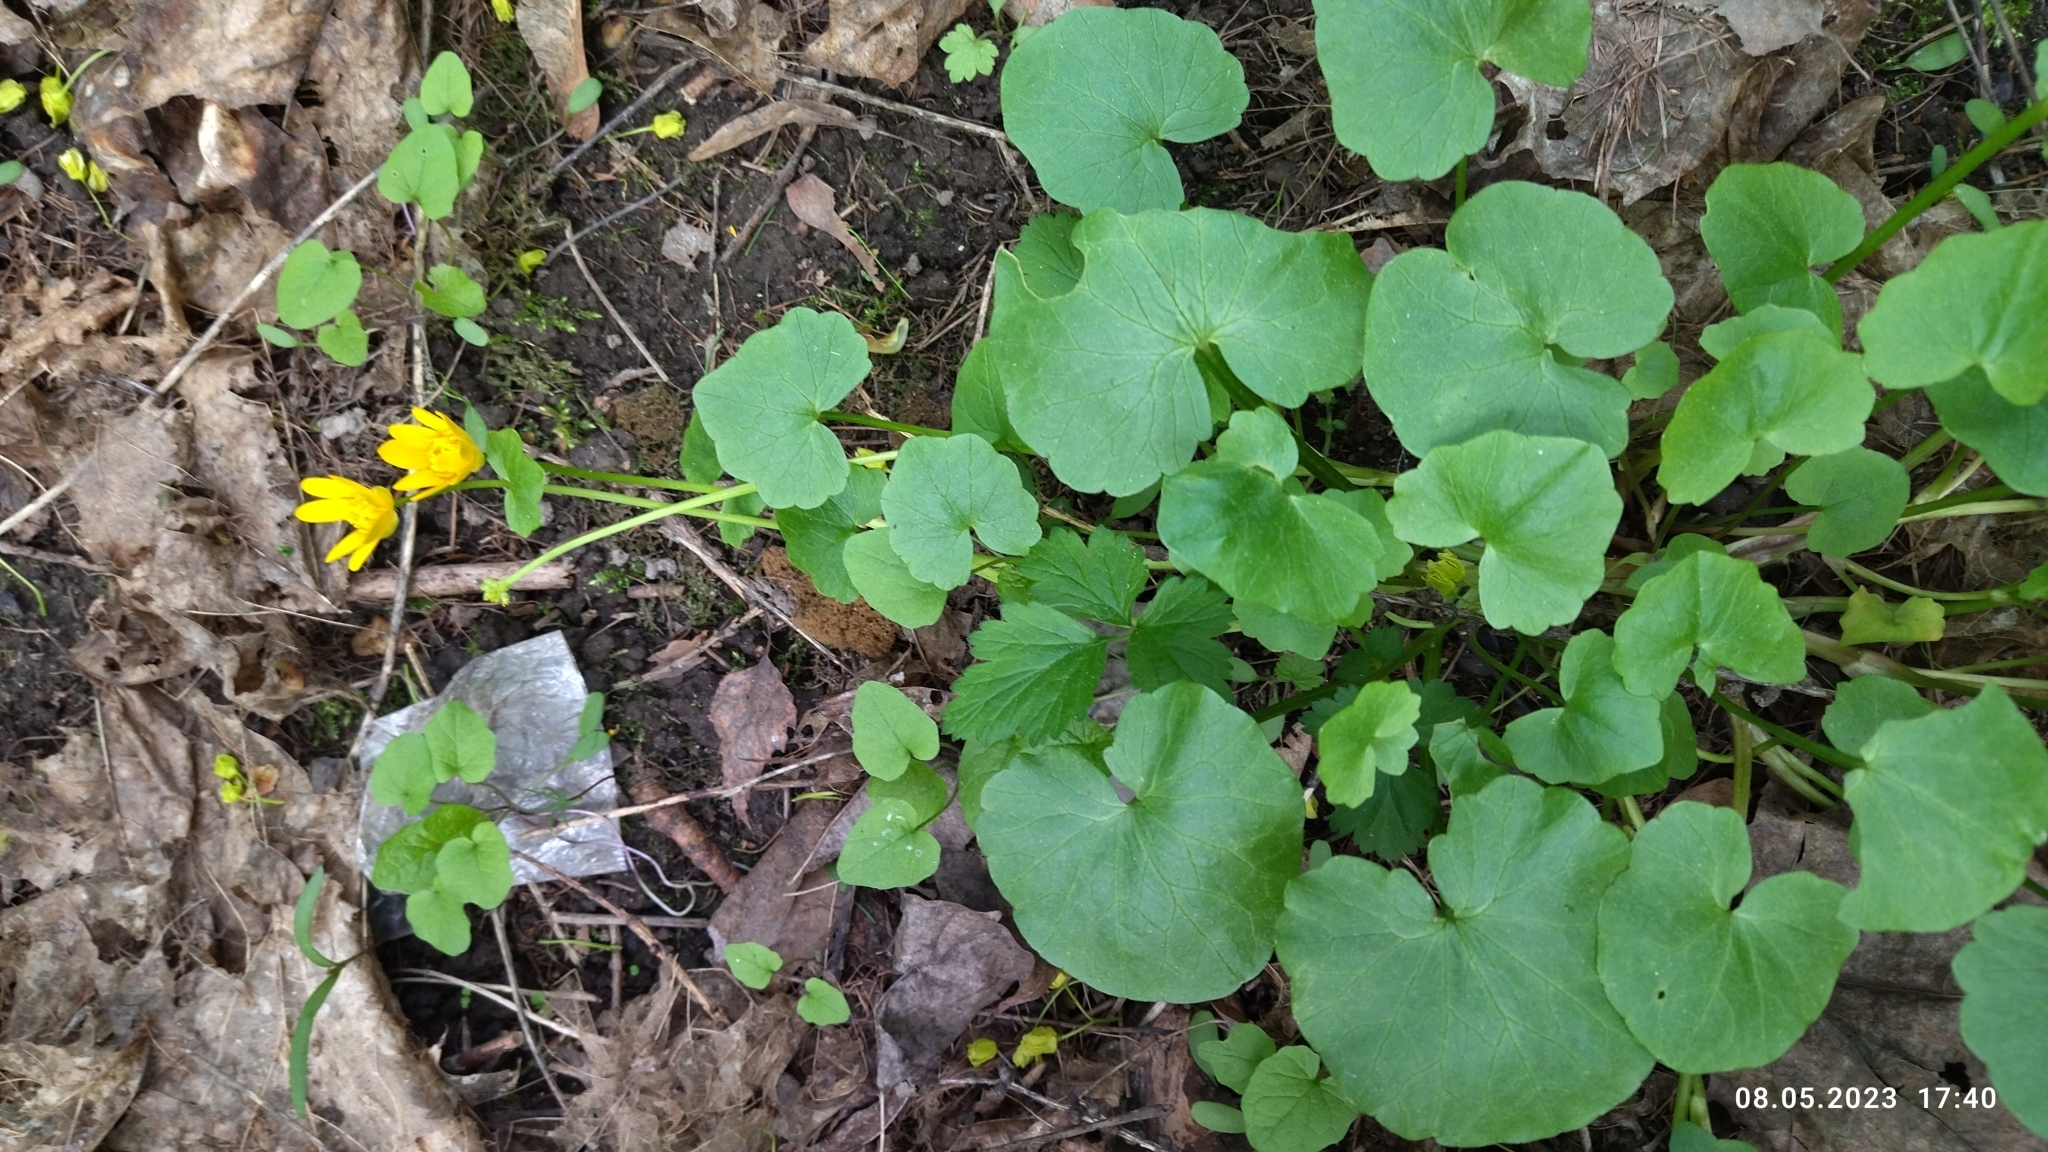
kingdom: Plantae
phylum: Tracheophyta
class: Magnoliopsida
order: Ranunculales
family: Ranunculaceae
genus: Ficaria
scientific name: Ficaria verna
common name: Lesser celandine
